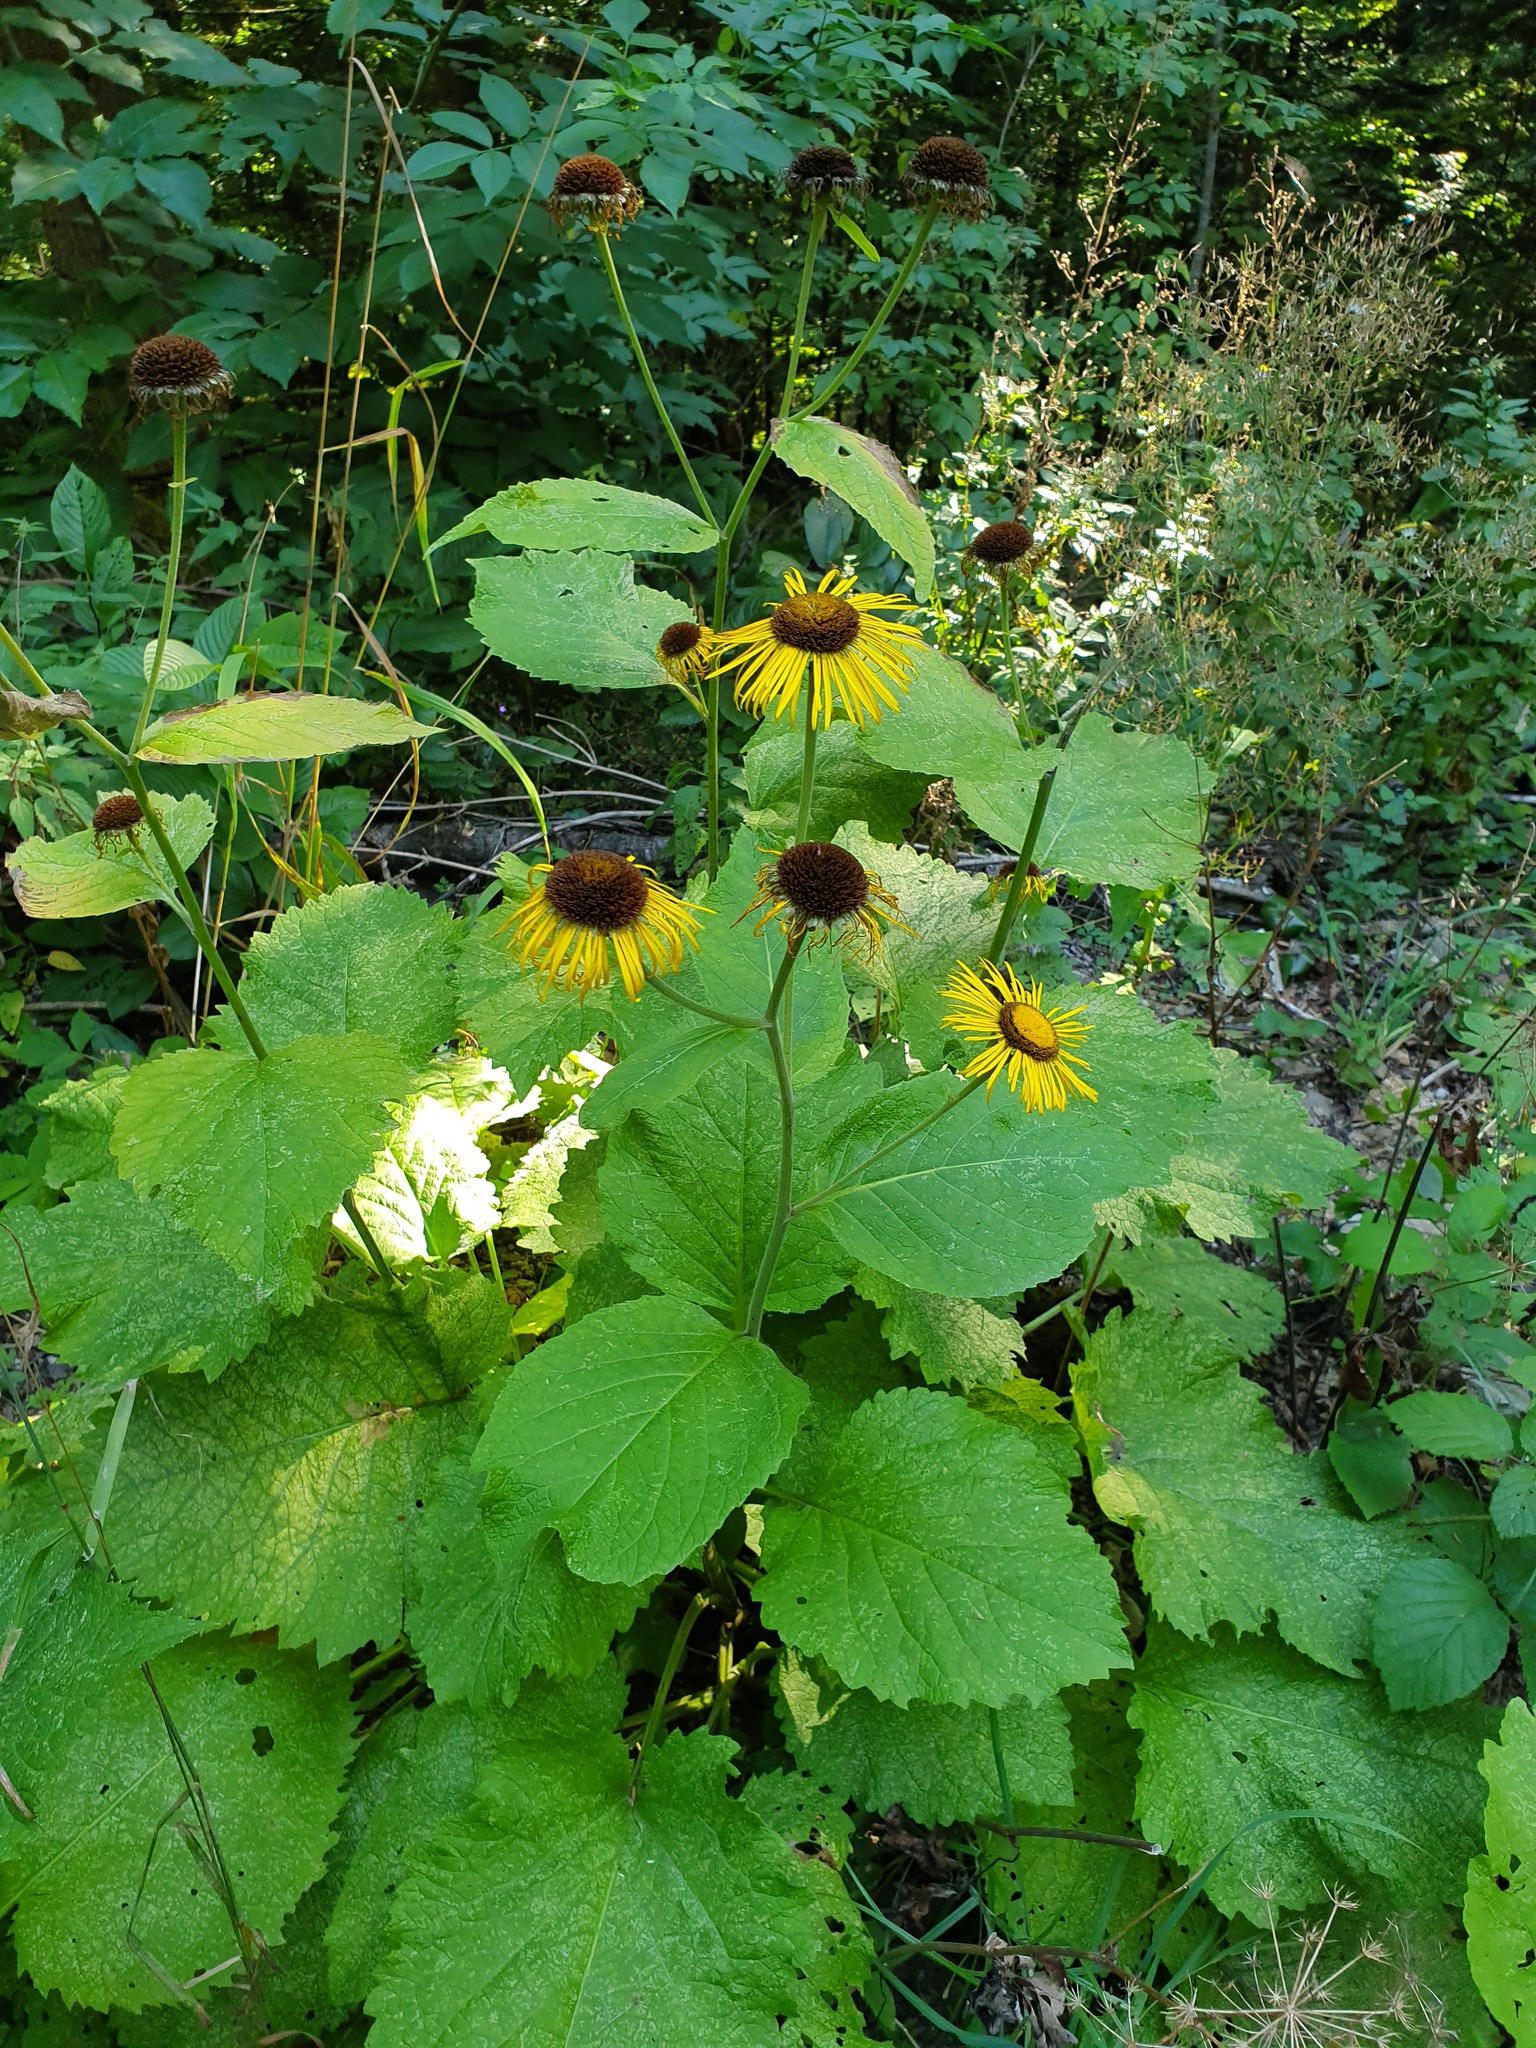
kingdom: Plantae
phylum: Tracheophyta
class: Magnoliopsida
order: Asterales
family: Asteraceae
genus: Telekia
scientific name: Telekia speciosa
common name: Yellow oxeye
